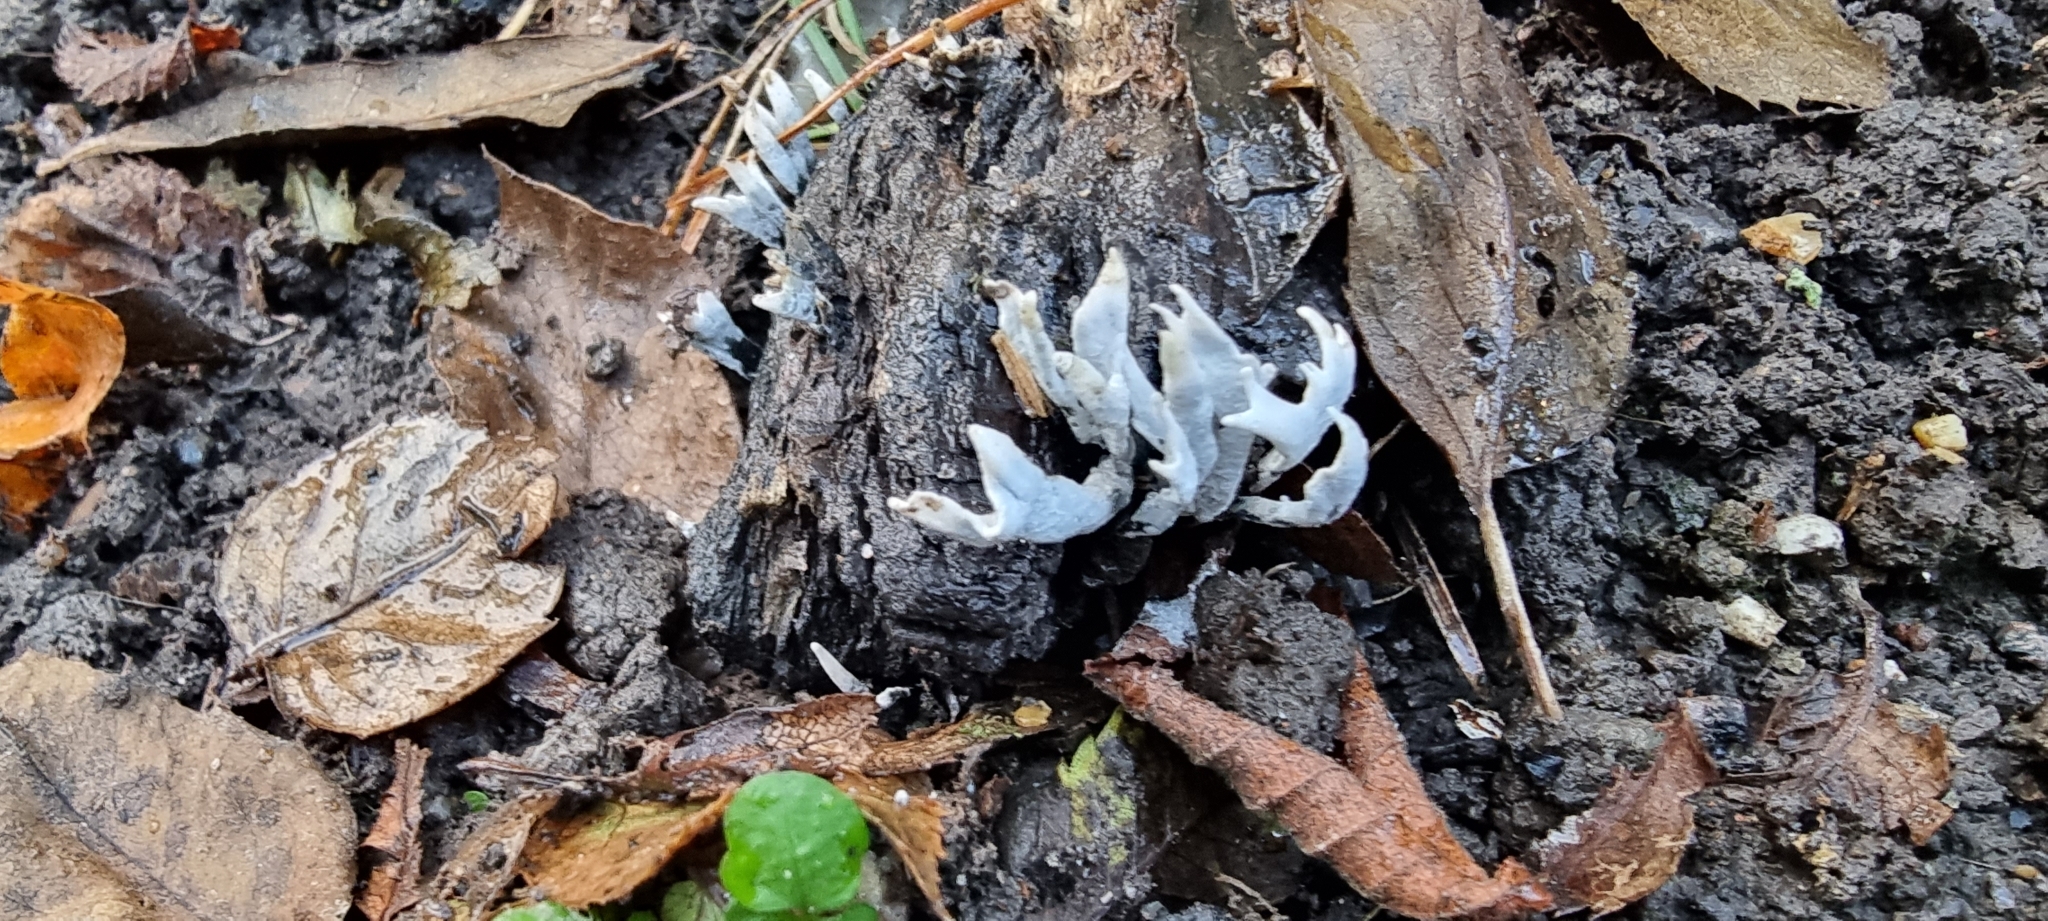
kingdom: Fungi
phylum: Ascomycota
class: Sordariomycetes
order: Xylariales
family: Xylariaceae
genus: Xylaria
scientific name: Xylaria hypoxylon
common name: Candle-snuff fungus
